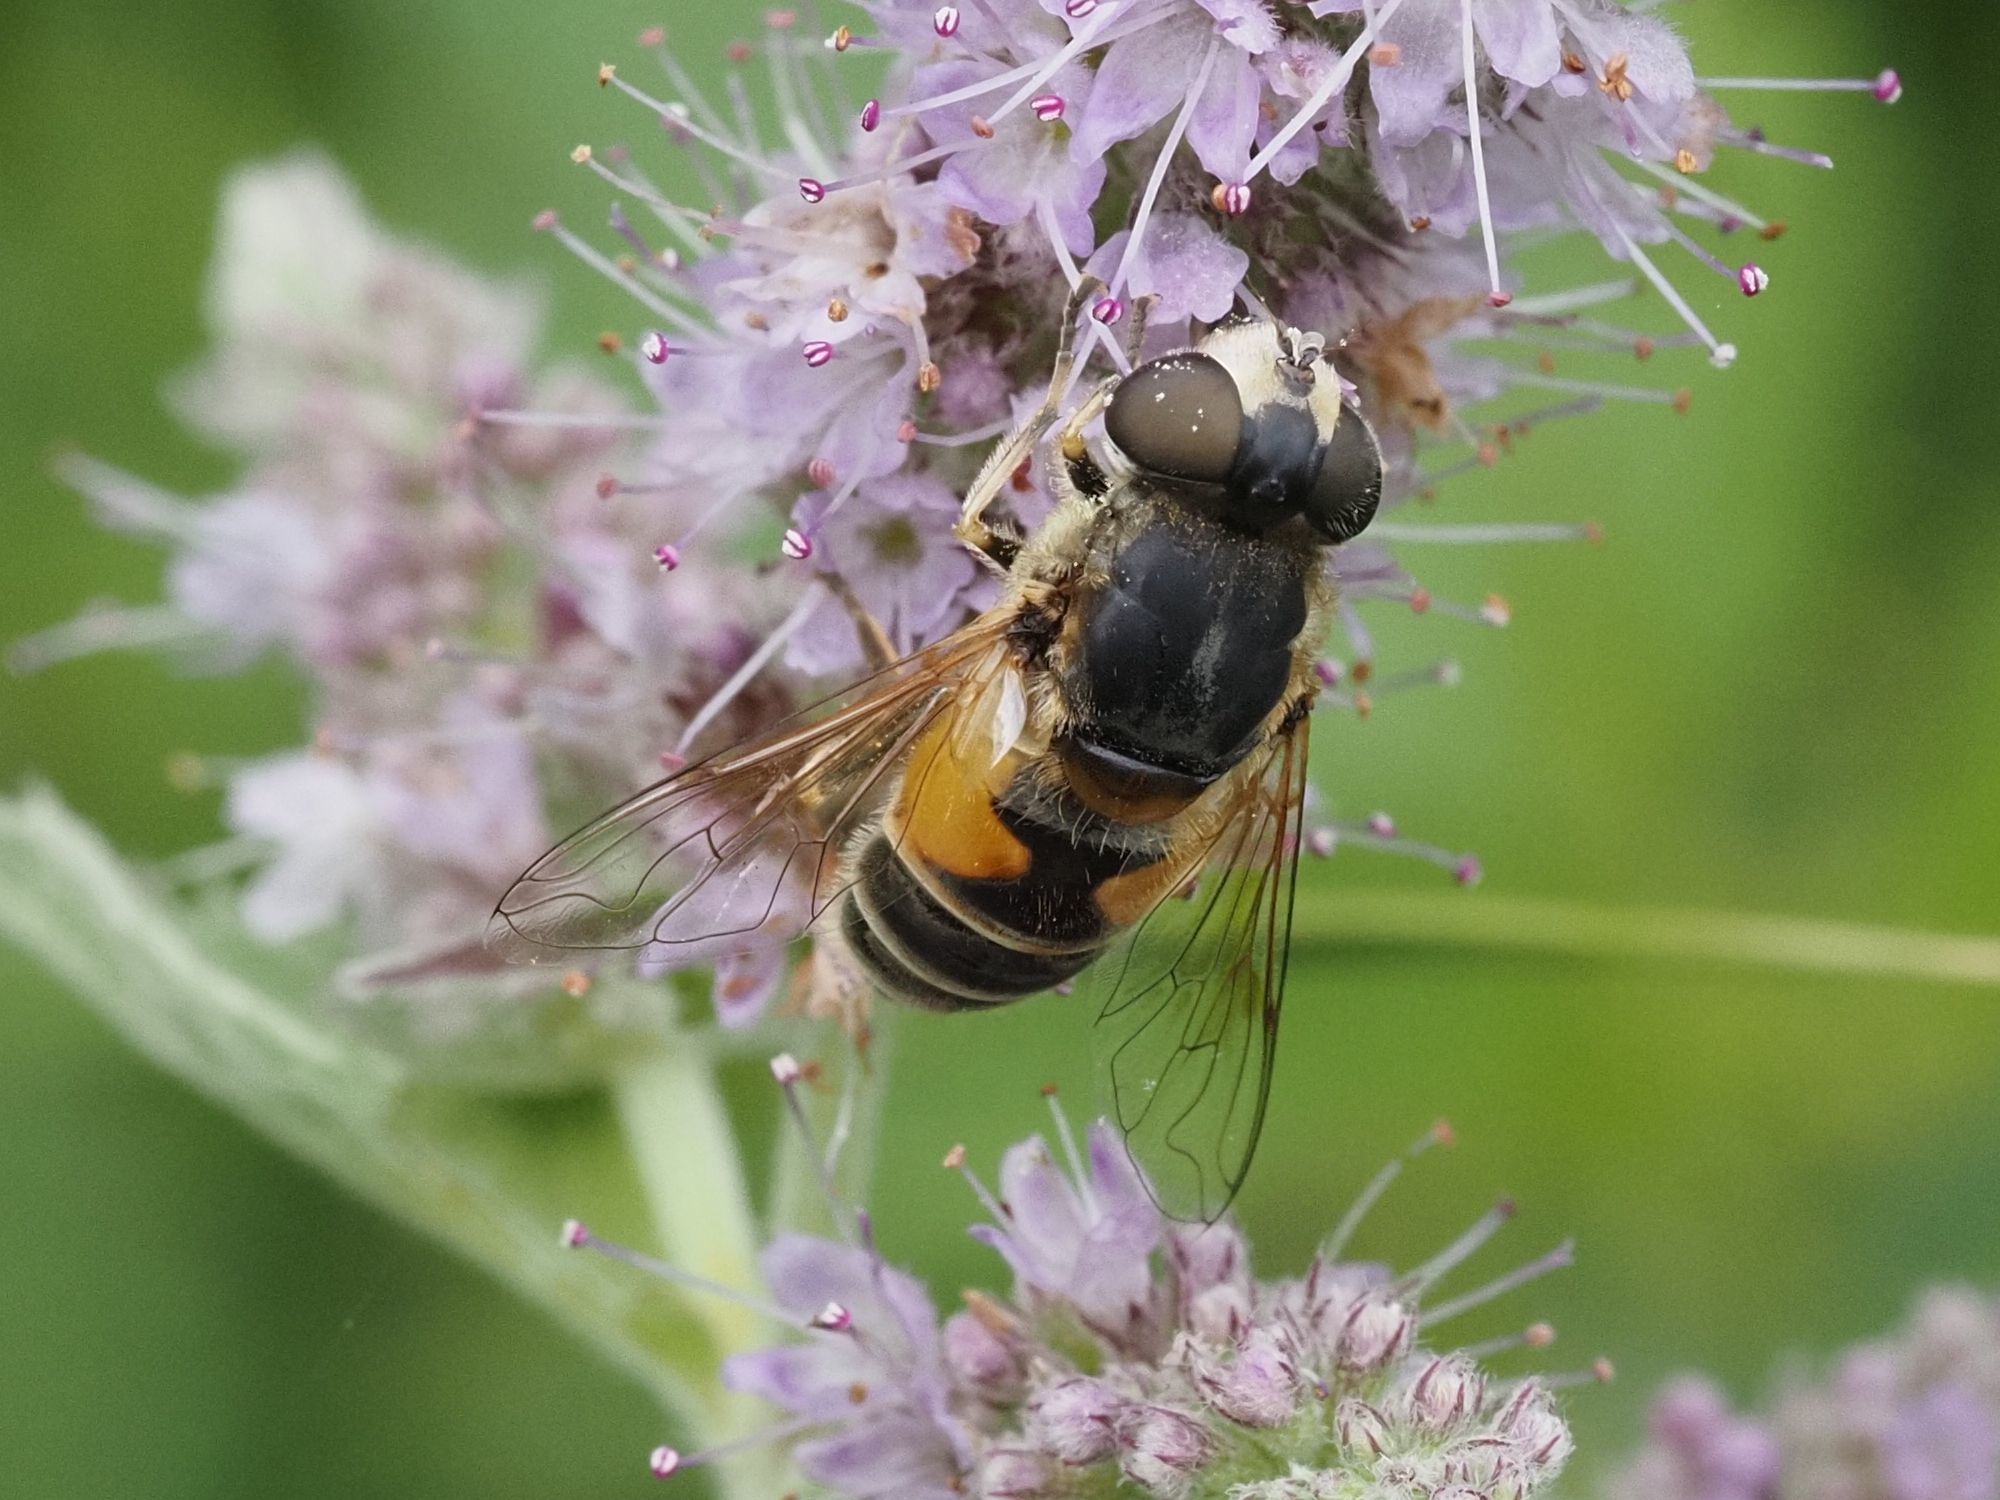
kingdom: Animalia
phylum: Arthropoda
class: Insecta
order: Diptera
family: Syrphidae
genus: Eristalis
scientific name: Eristalis arbustorum
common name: Hover fly
